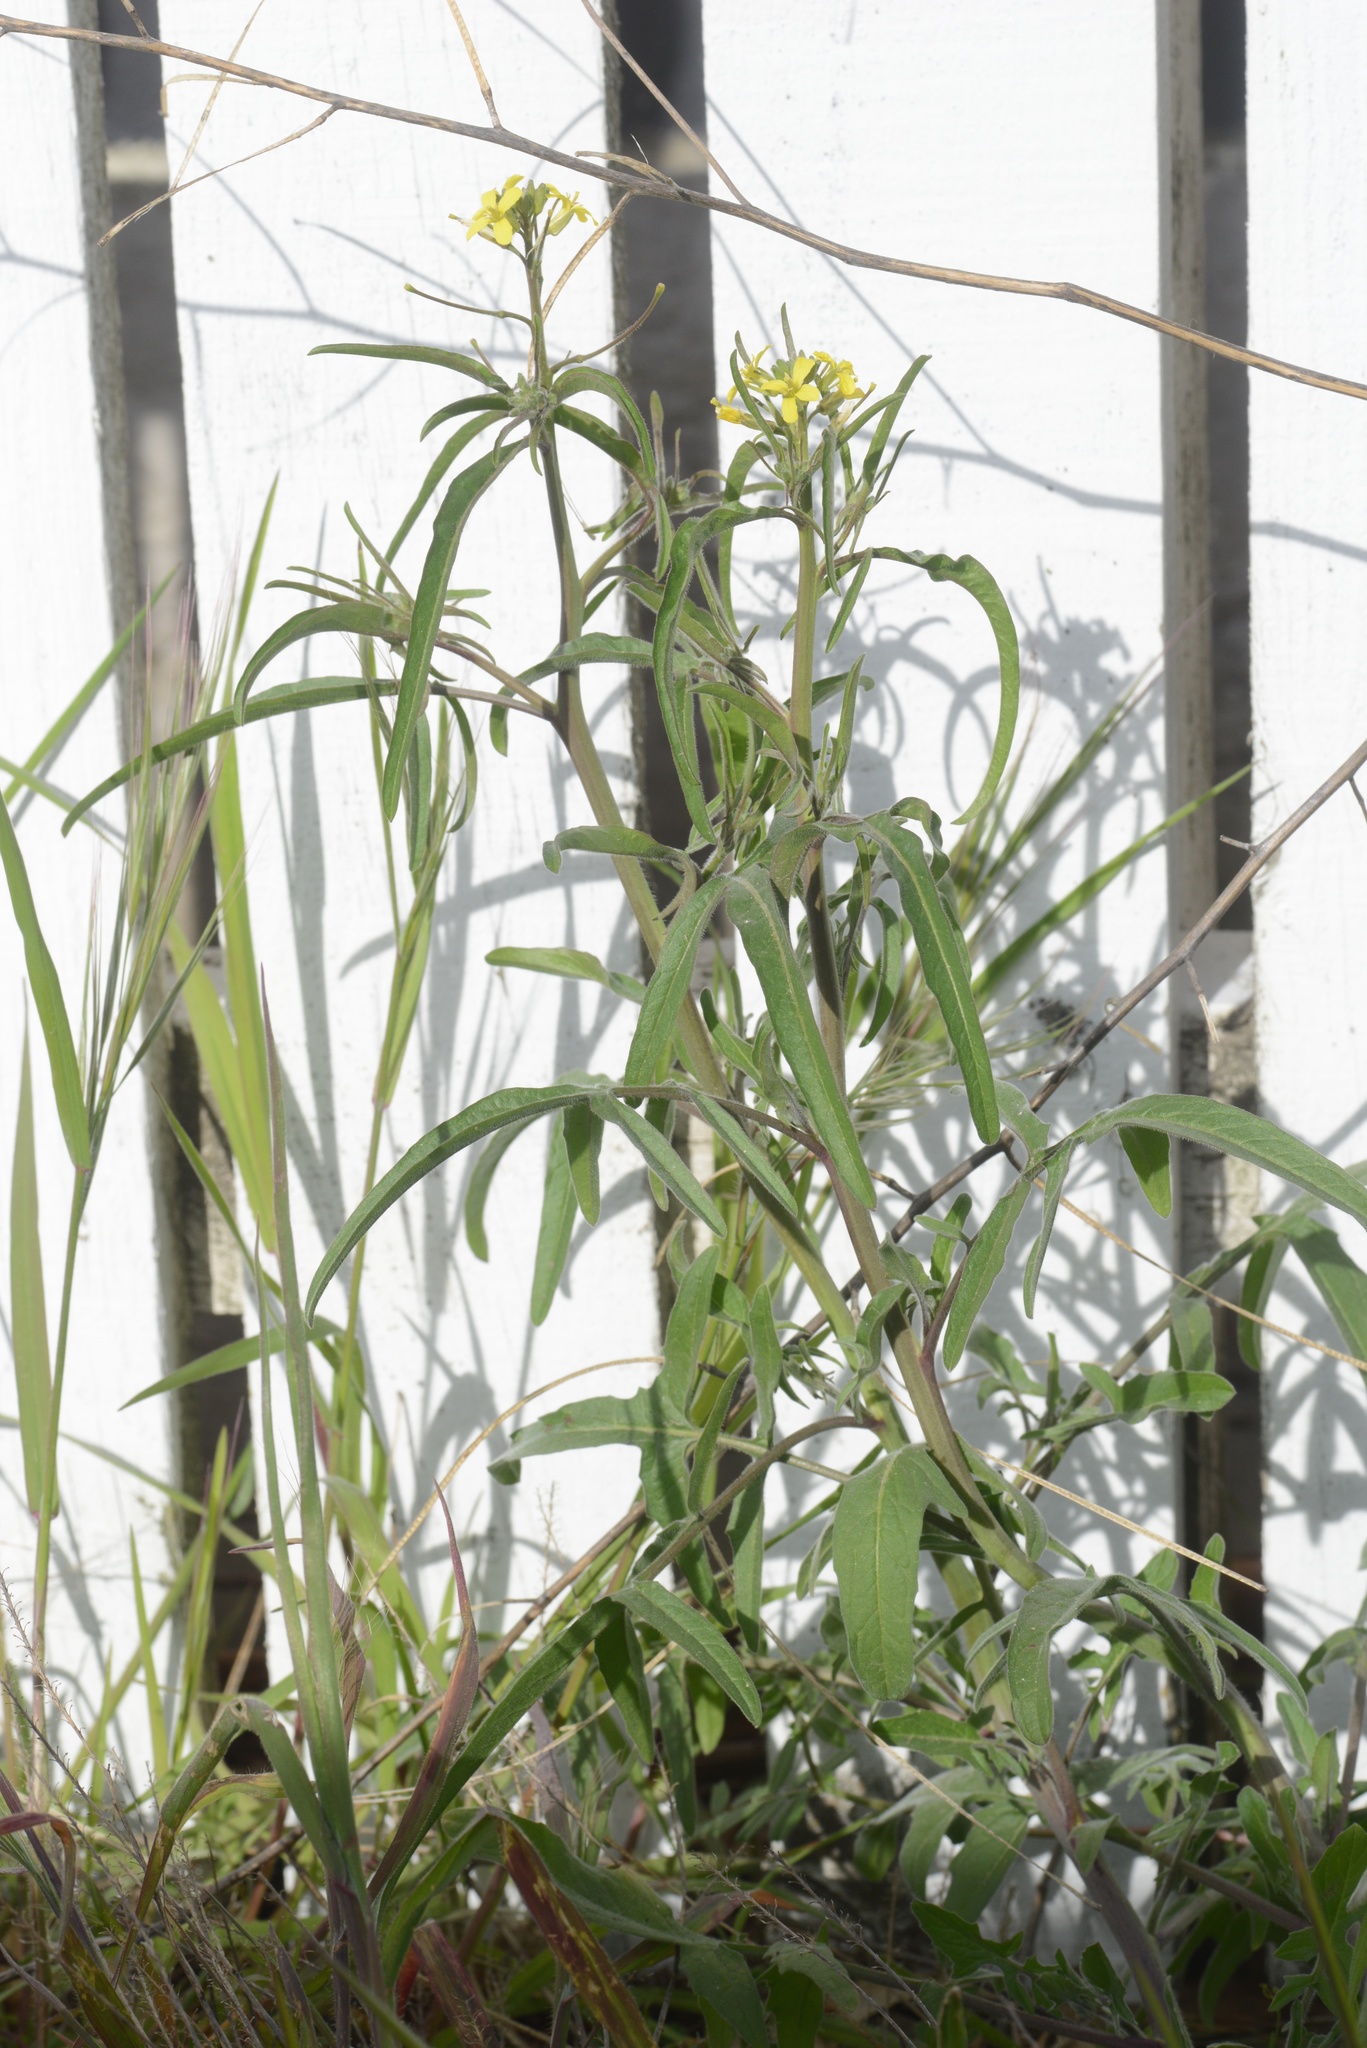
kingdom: Plantae
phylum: Tracheophyta
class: Magnoliopsida
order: Brassicales
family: Brassicaceae
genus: Sisymbrium
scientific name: Sisymbrium orientale
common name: Eastern rocket
